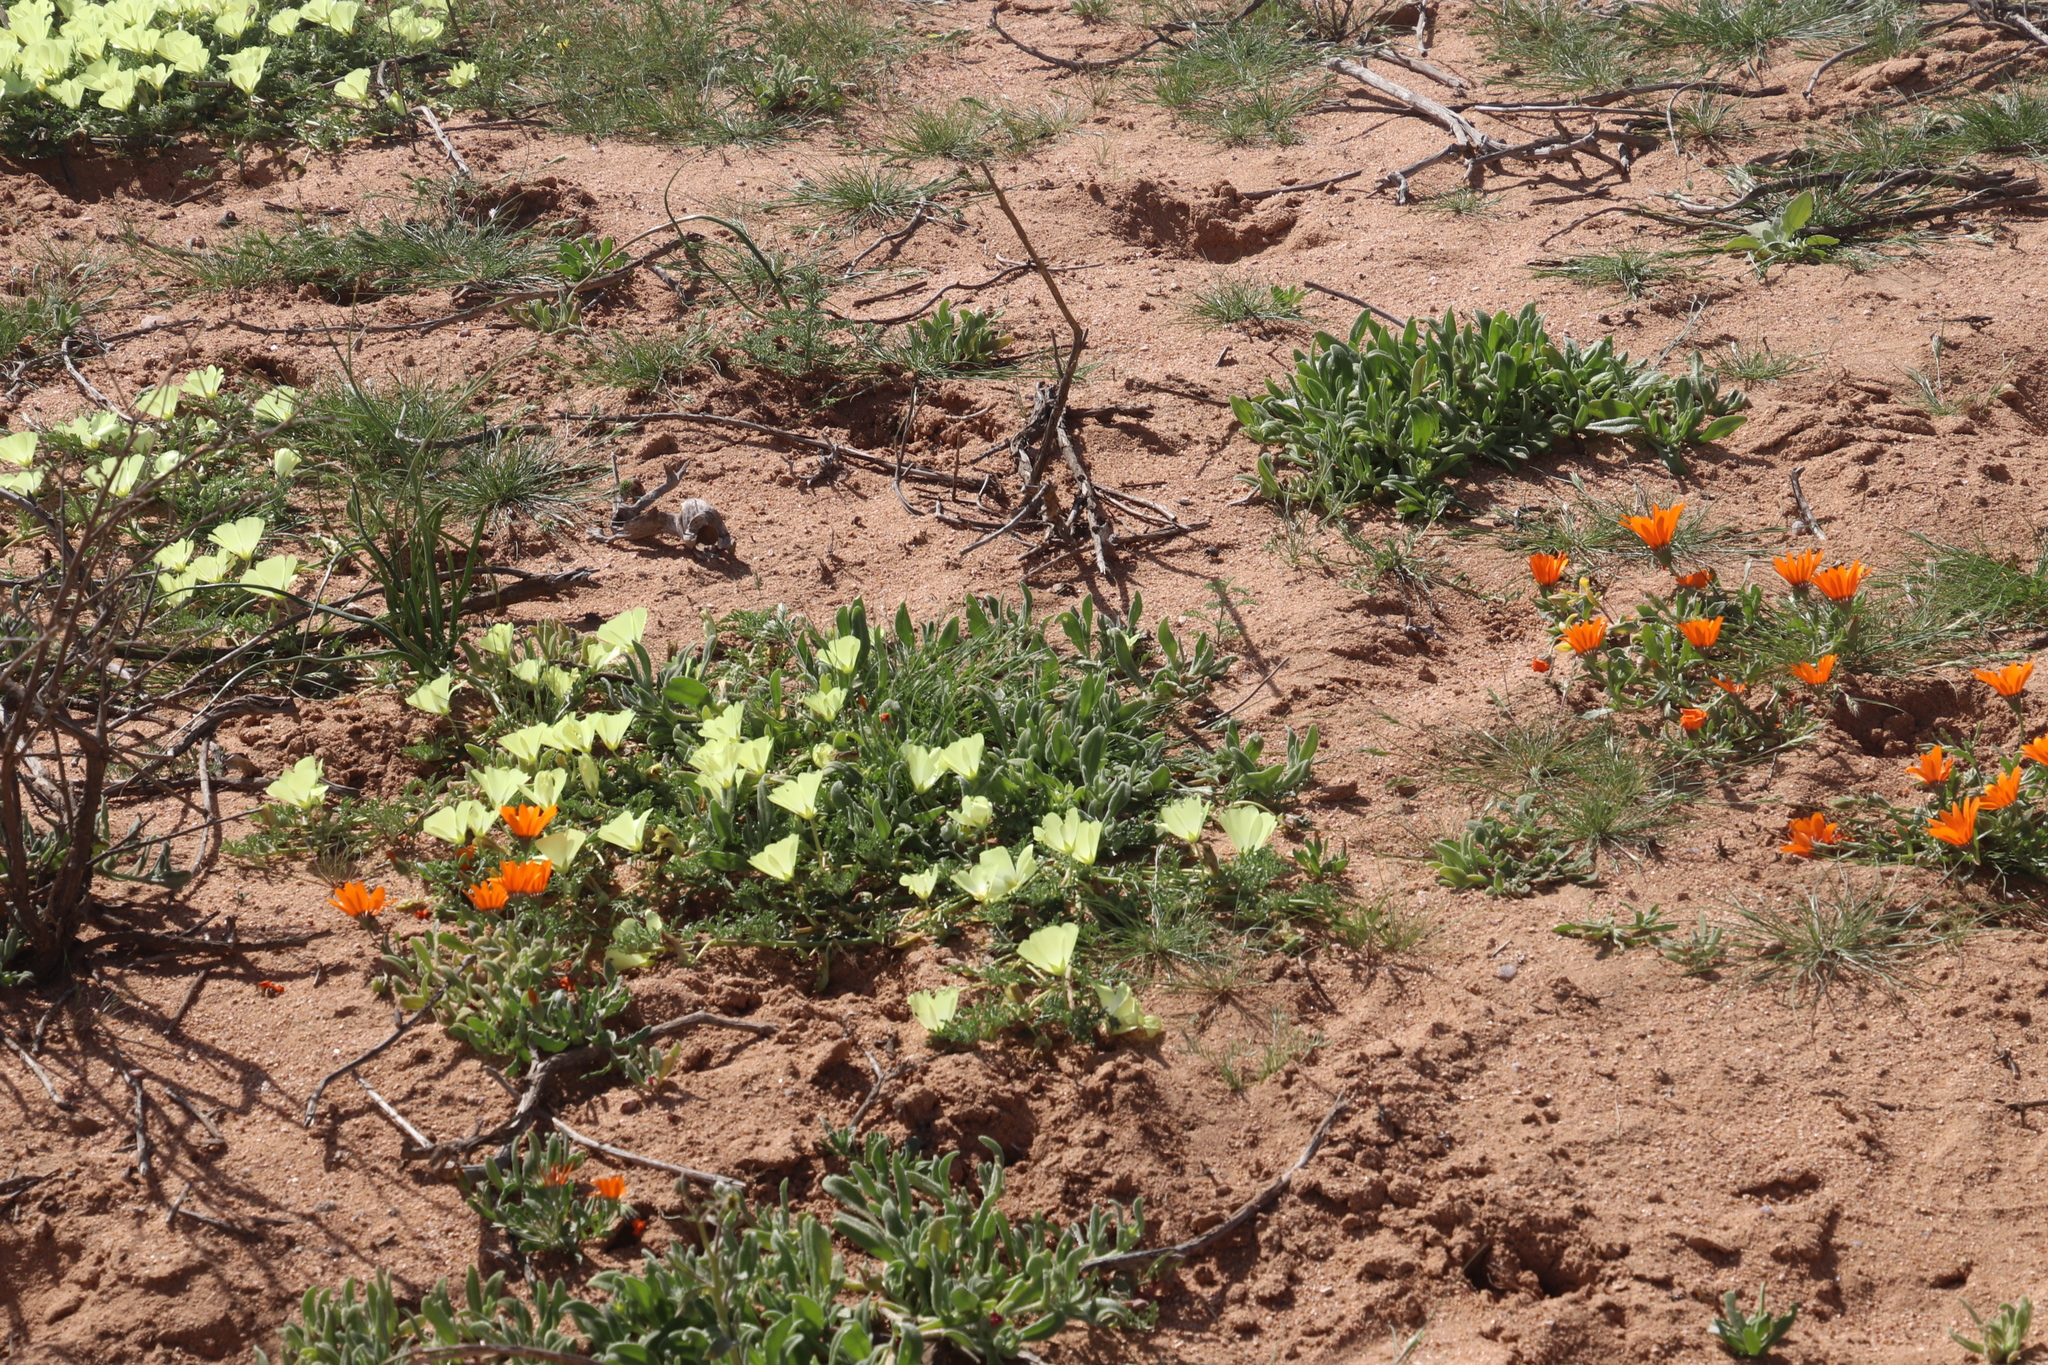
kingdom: Plantae
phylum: Tracheophyta
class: Magnoliopsida
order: Malvales
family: Neuradaceae
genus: Grielum
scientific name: Grielum humifusum
